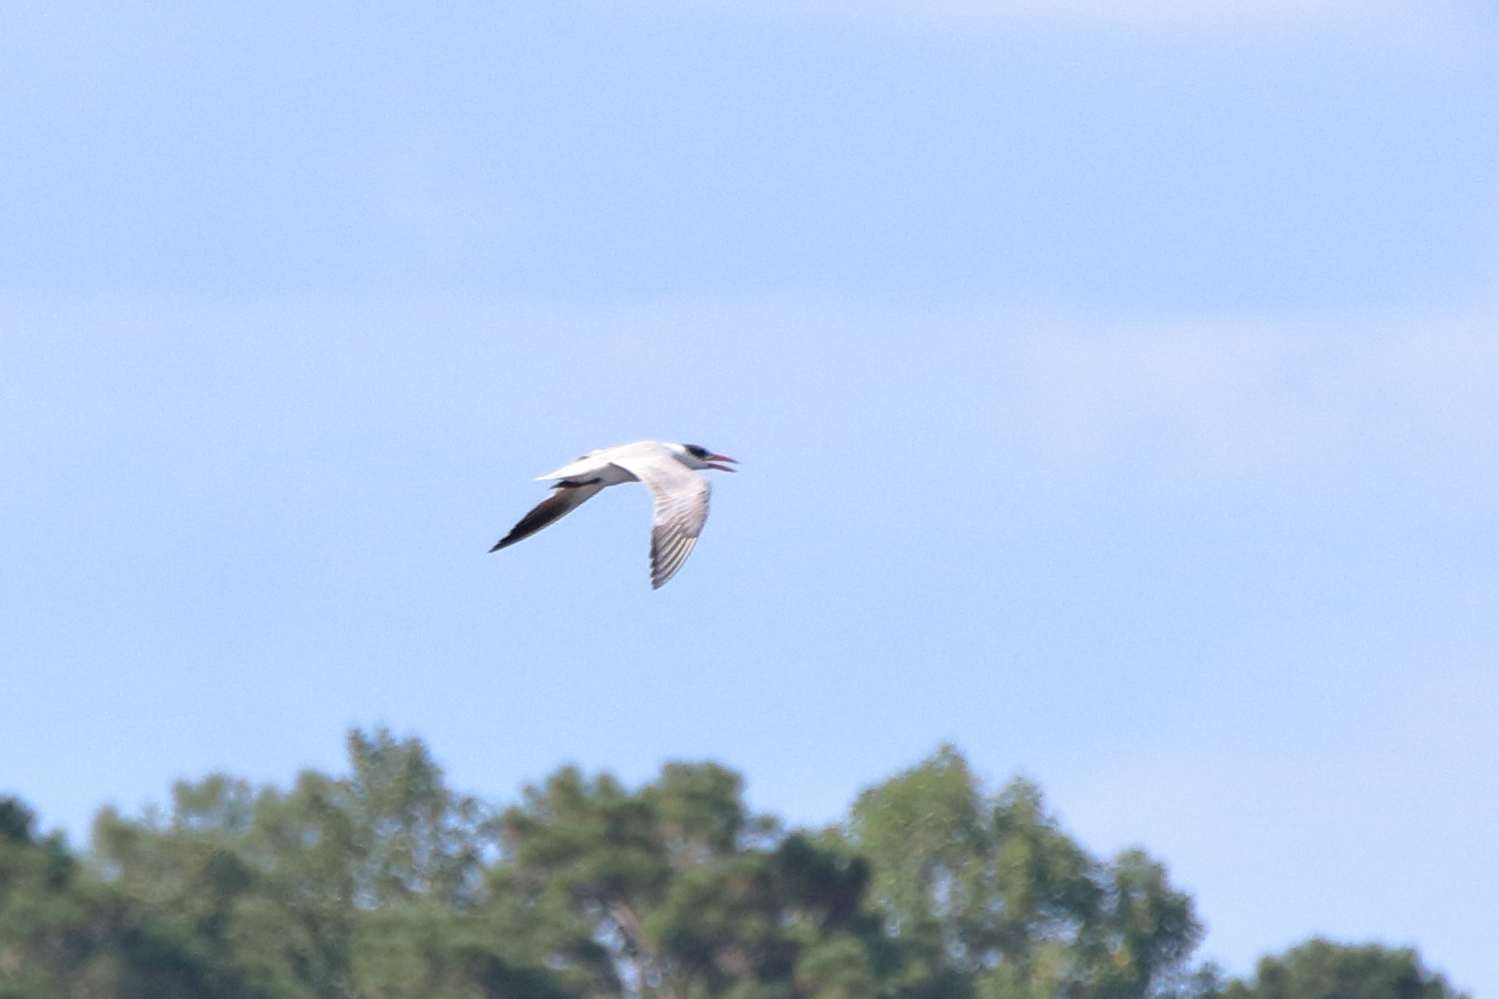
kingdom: Animalia
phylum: Chordata
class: Aves
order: Charadriiformes
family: Laridae
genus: Hydroprogne
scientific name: Hydroprogne caspia
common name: Caspian tern
